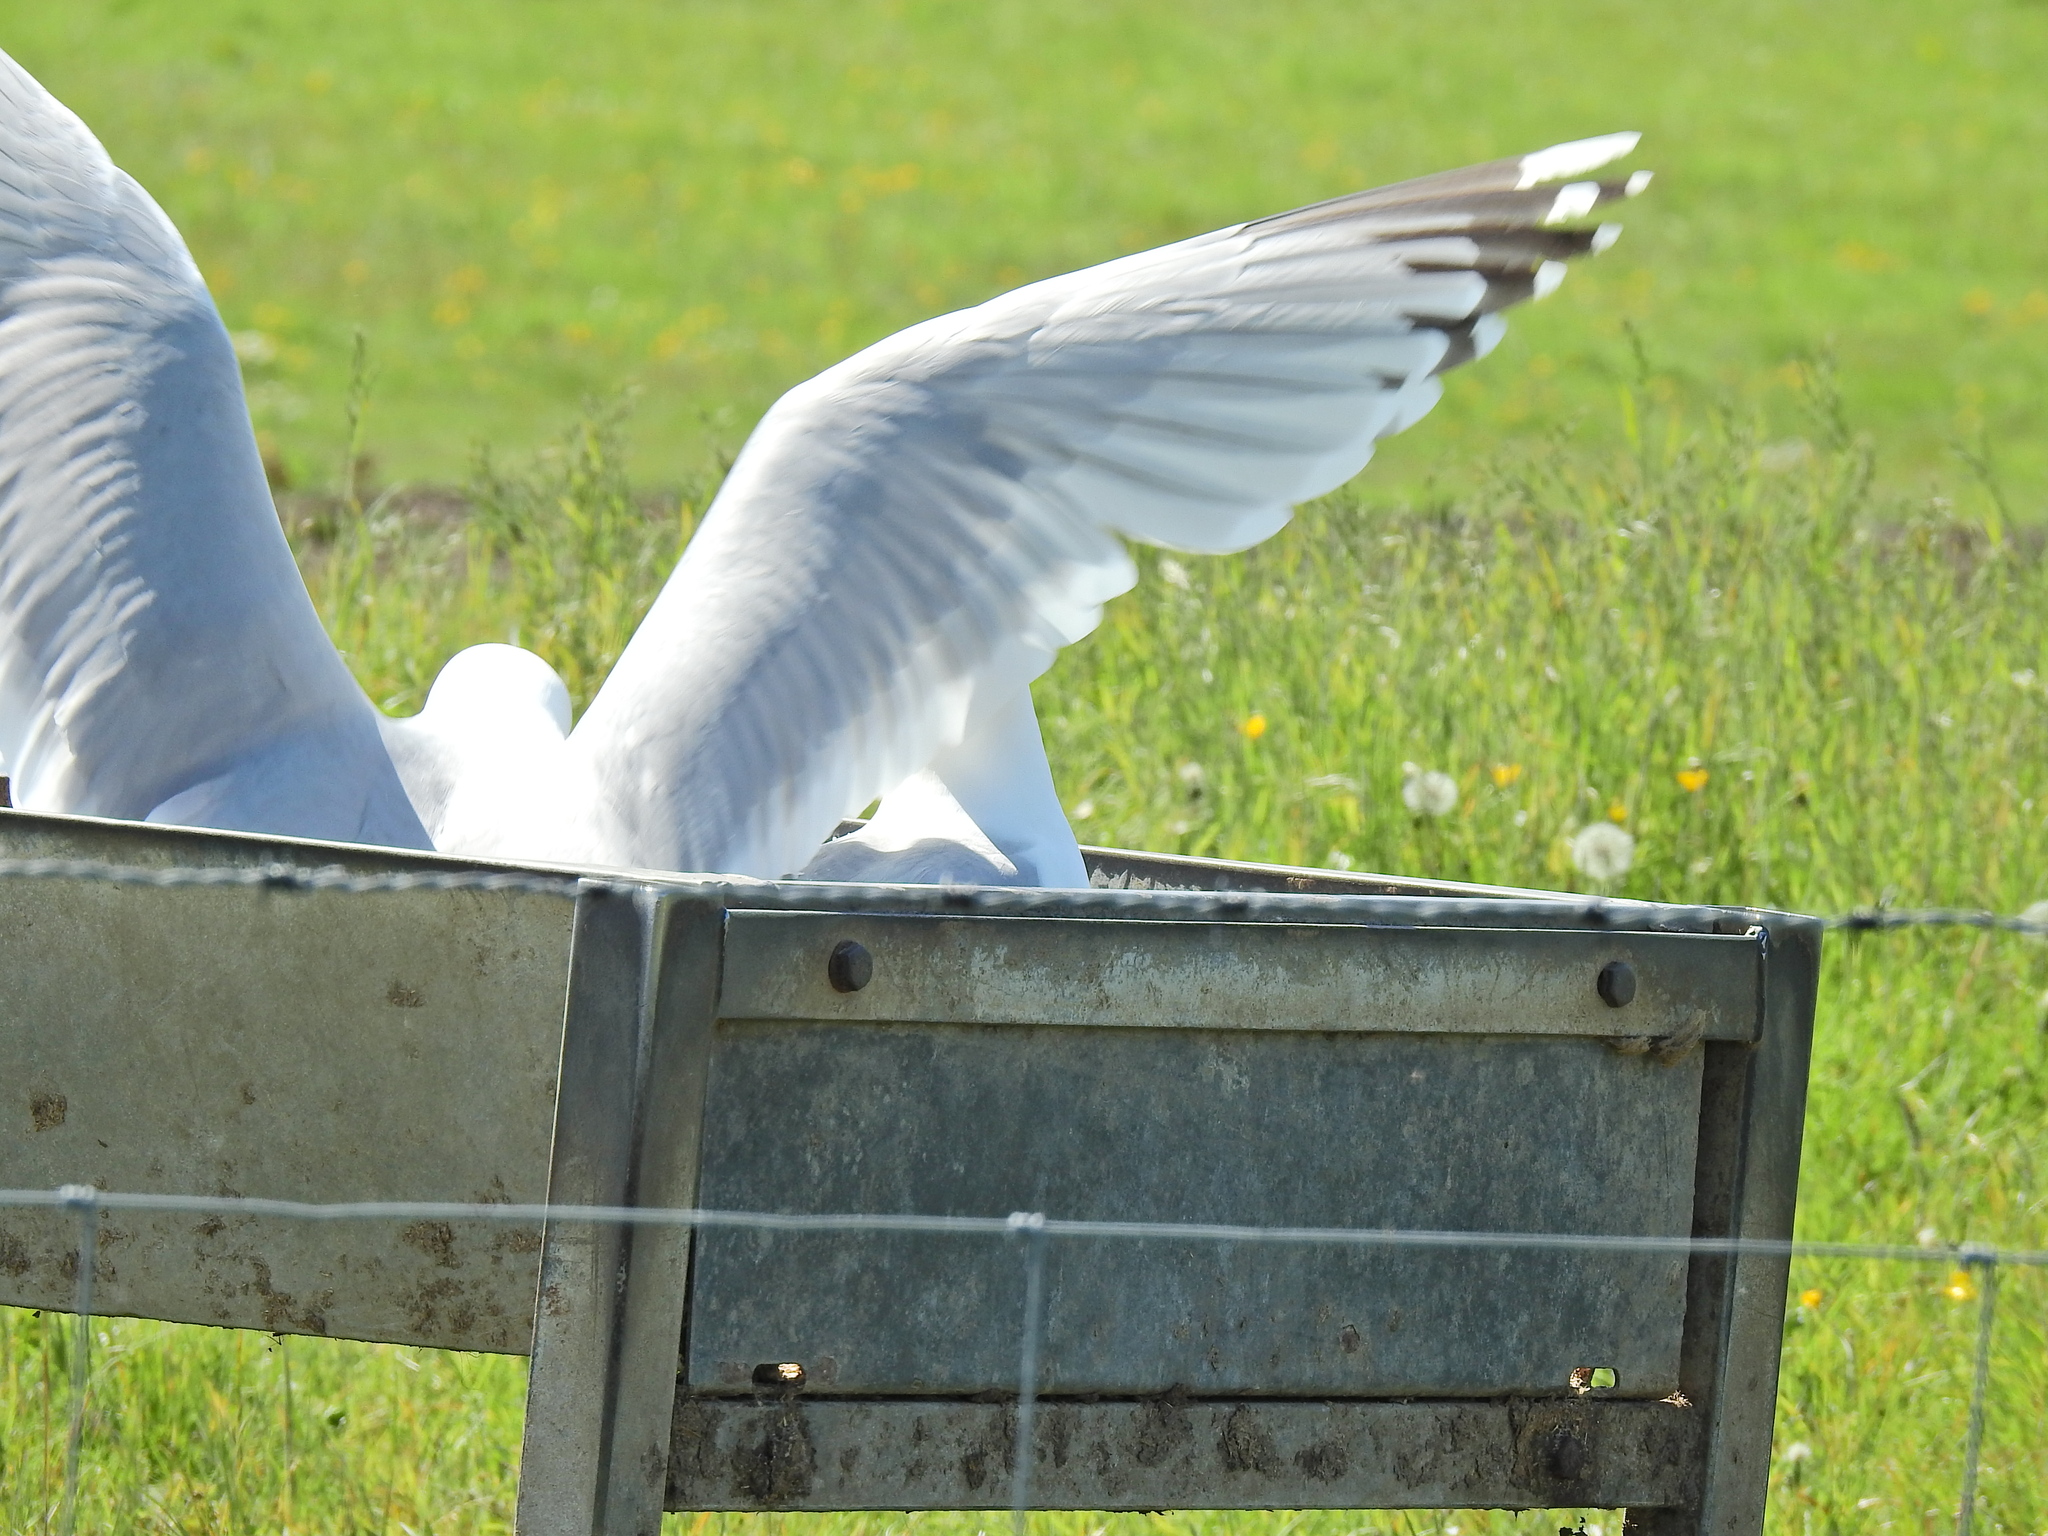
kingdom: Animalia
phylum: Chordata
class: Aves
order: Charadriiformes
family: Laridae
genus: Larus
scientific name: Larus argentatus
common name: Herring gull
